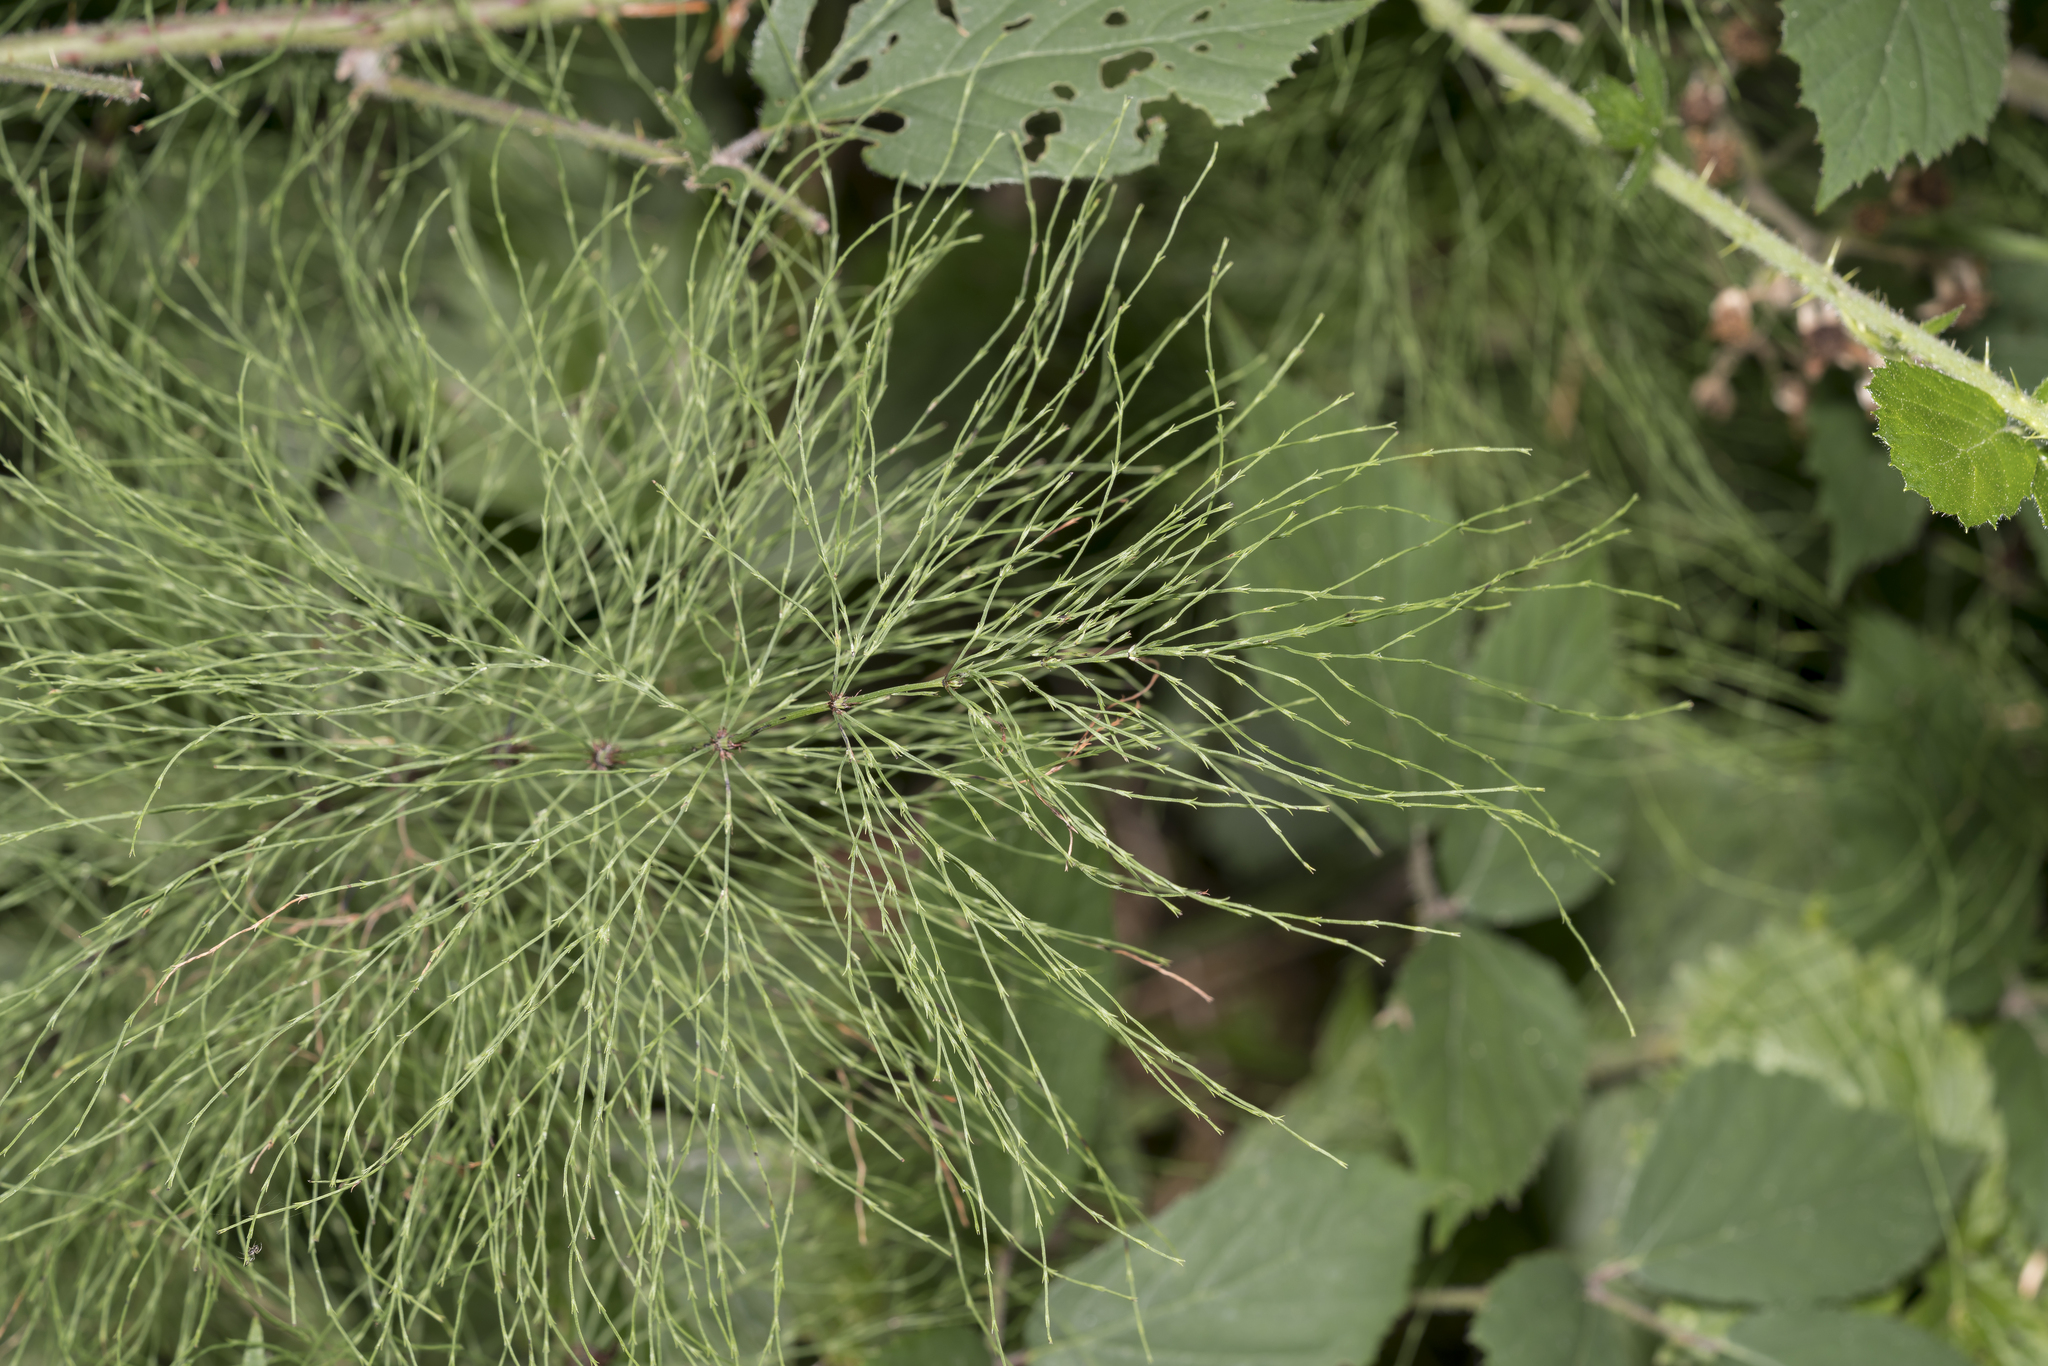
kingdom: Plantae
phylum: Tracheophyta
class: Polypodiopsida
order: Equisetales
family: Equisetaceae
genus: Equisetum
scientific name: Equisetum sylvaticum
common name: Wood horsetail
